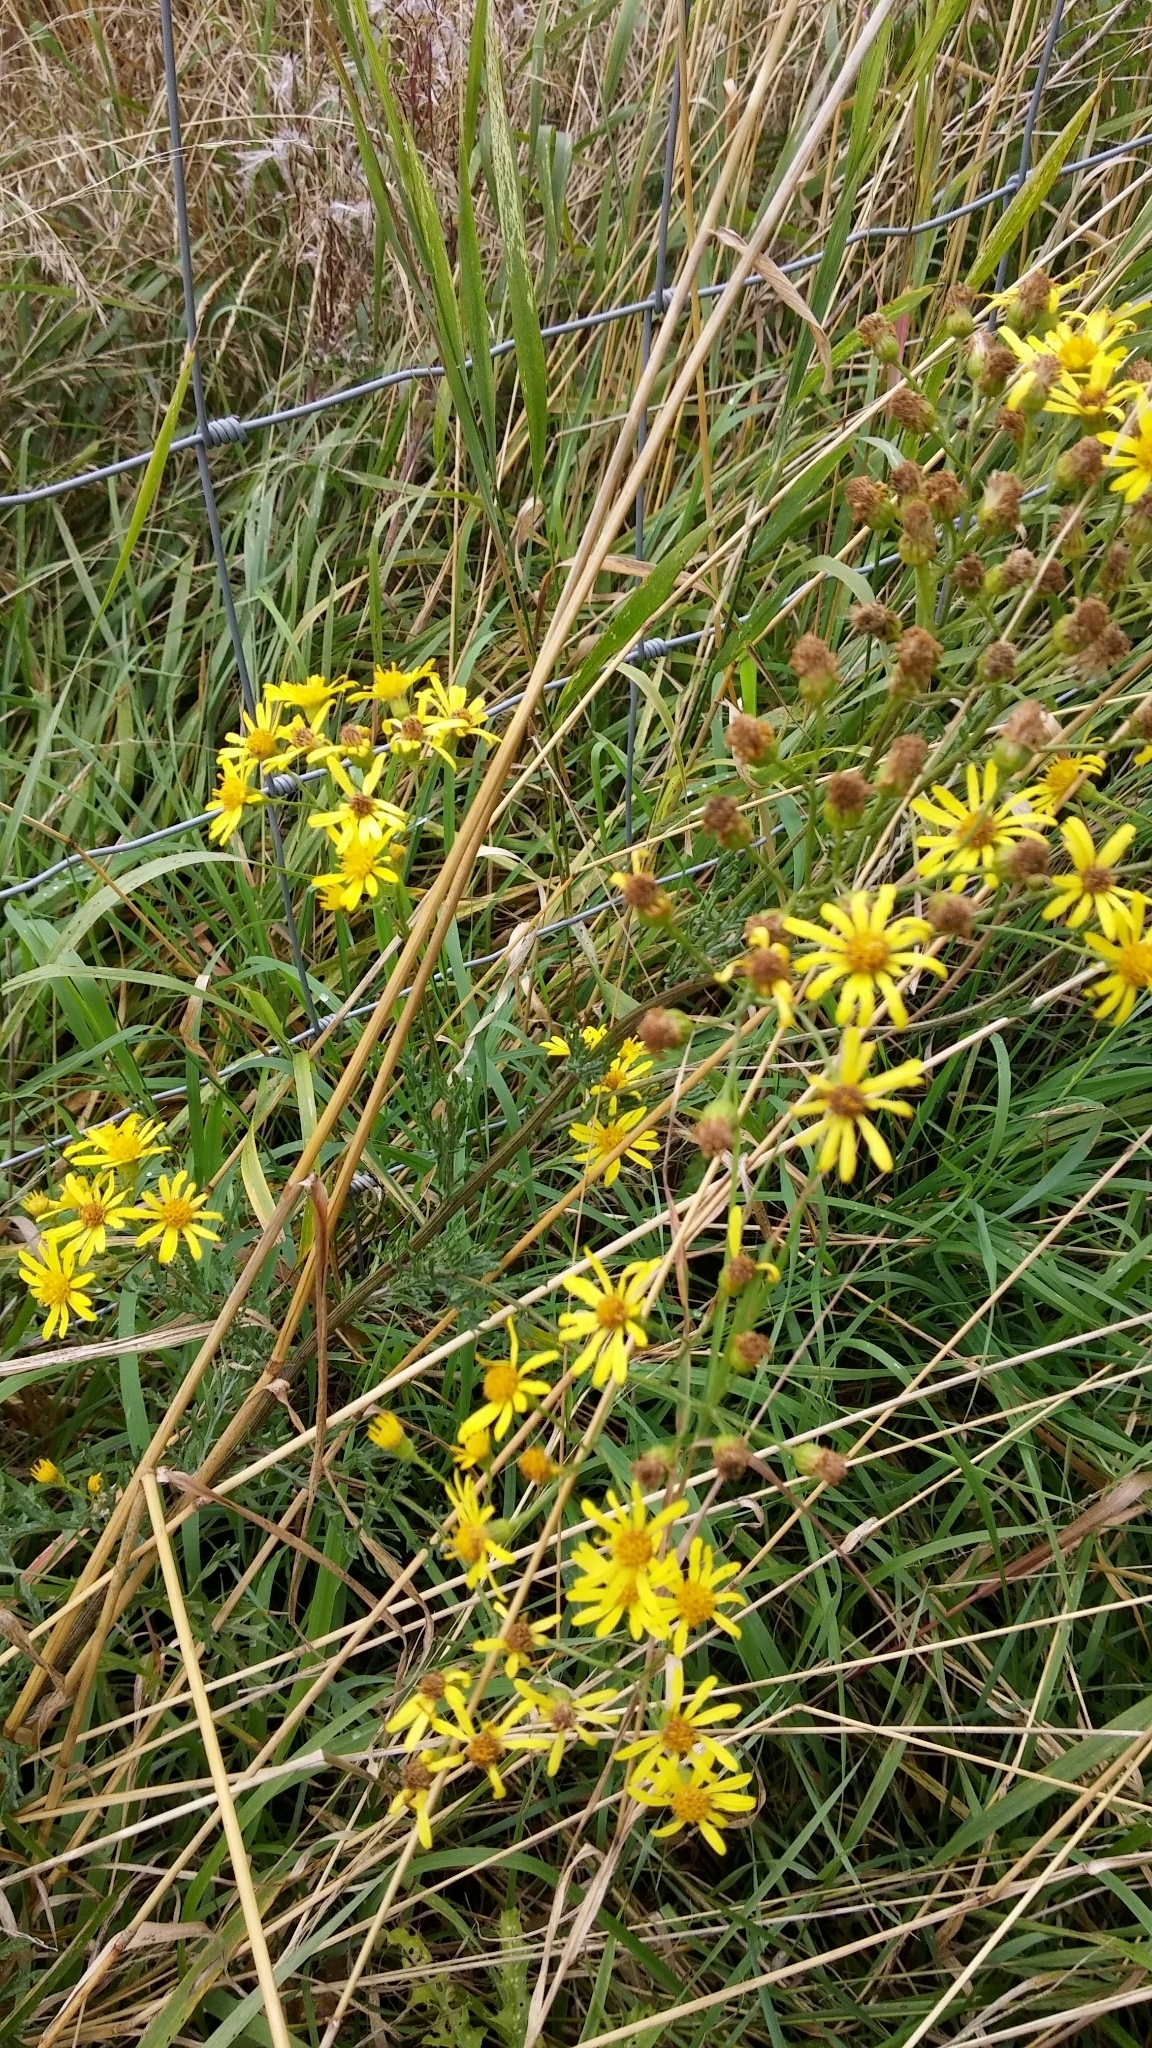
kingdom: Plantae
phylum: Tracheophyta
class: Magnoliopsida
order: Asterales
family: Asteraceae
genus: Jacobaea
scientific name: Jacobaea vulgaris
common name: Stinking willie
